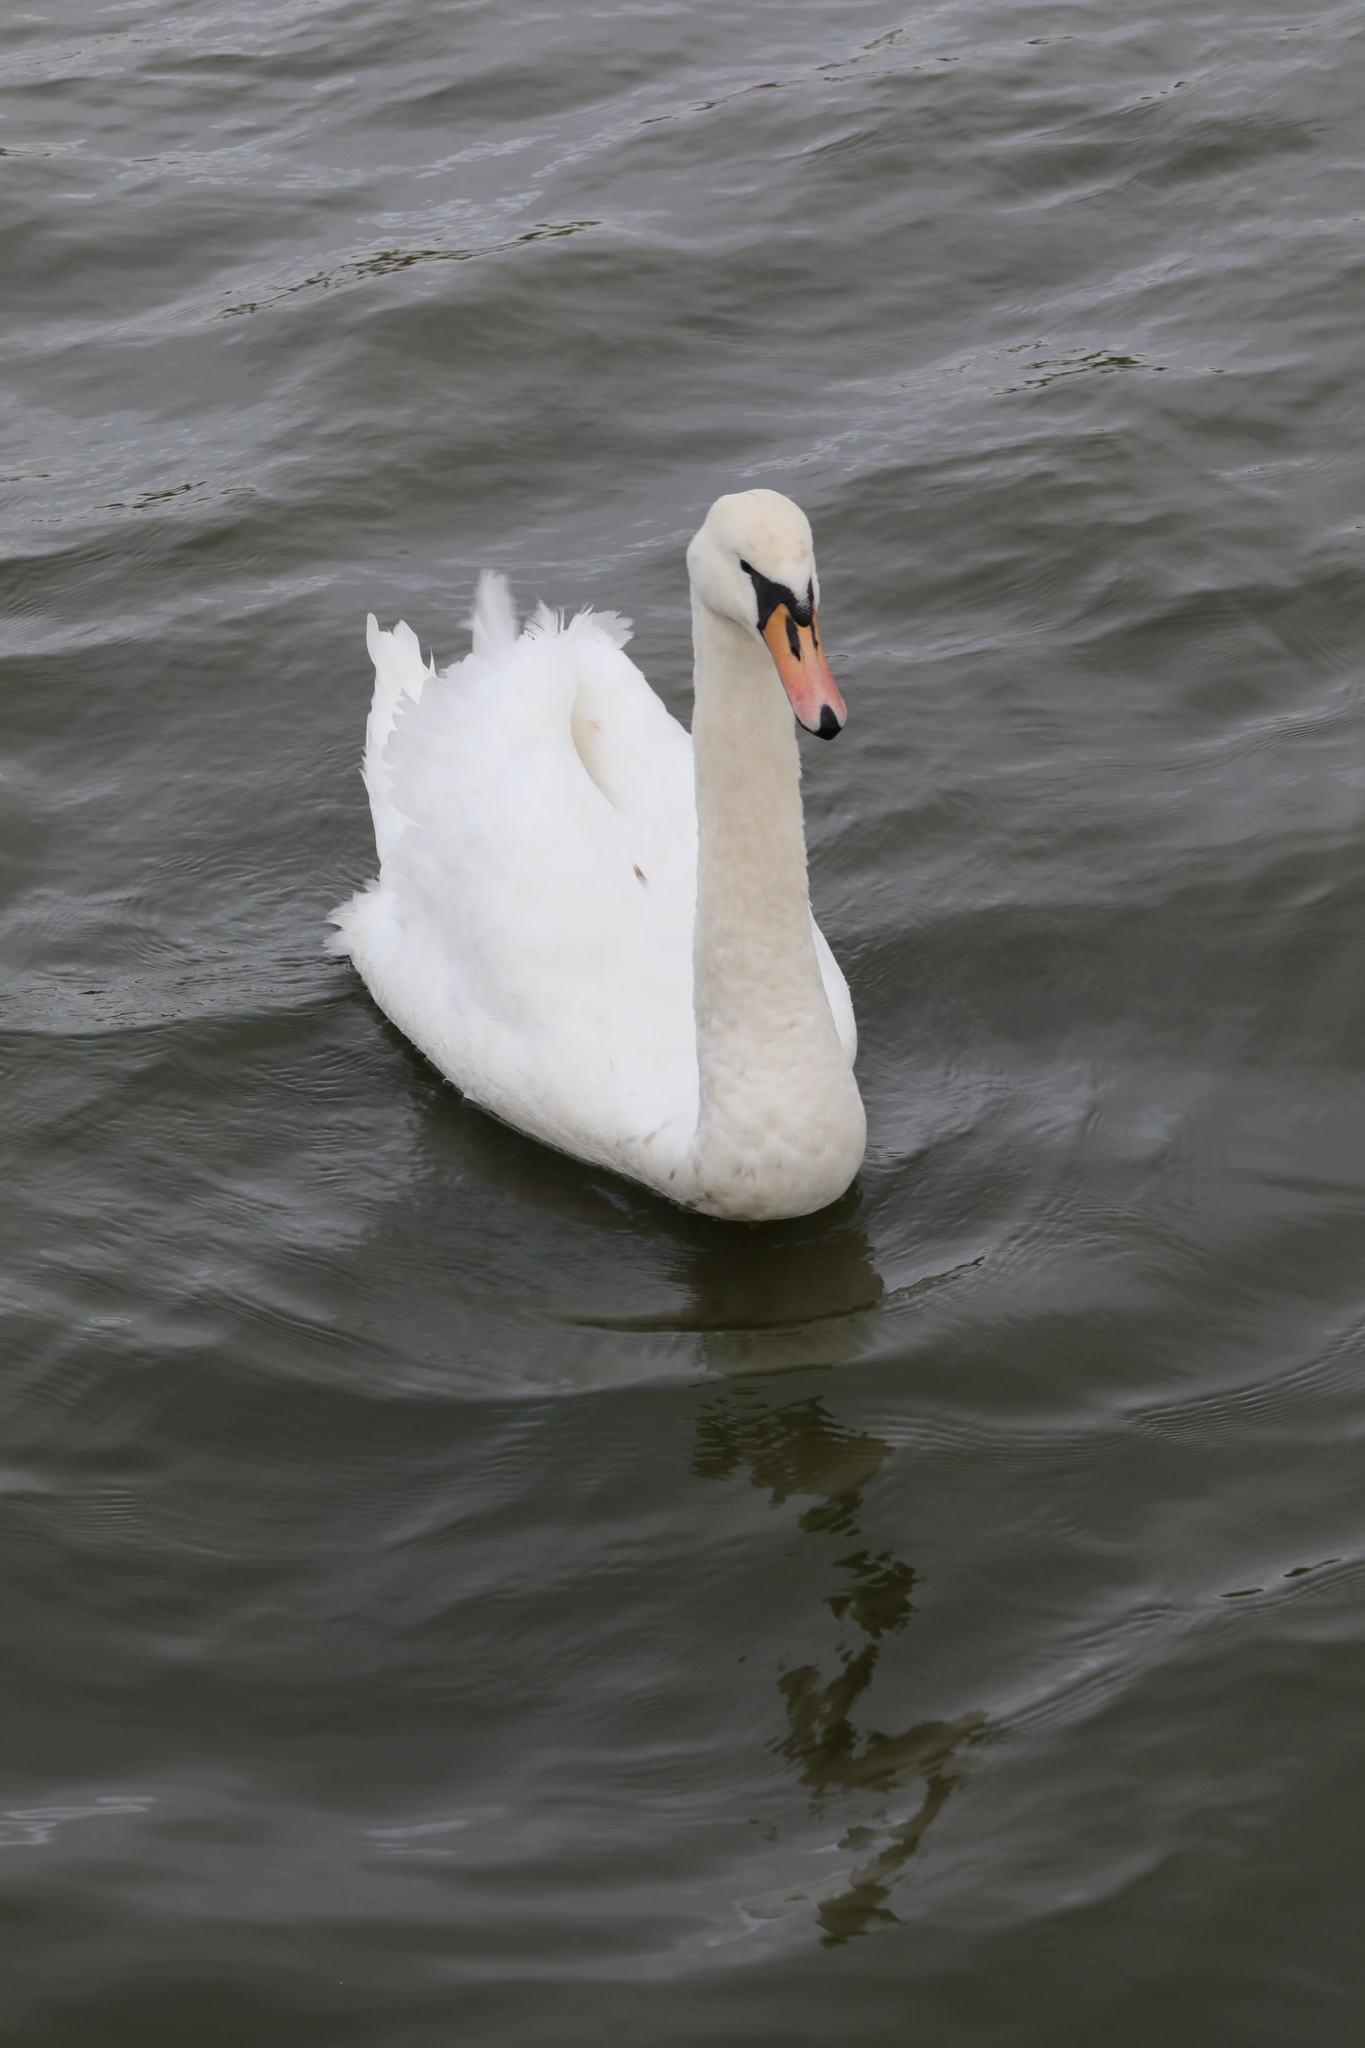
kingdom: Animalia
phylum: Chordata
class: Aves
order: Anseriformes
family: Anatidae
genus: Cygnus
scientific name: Cygnus olor
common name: Mute swan
